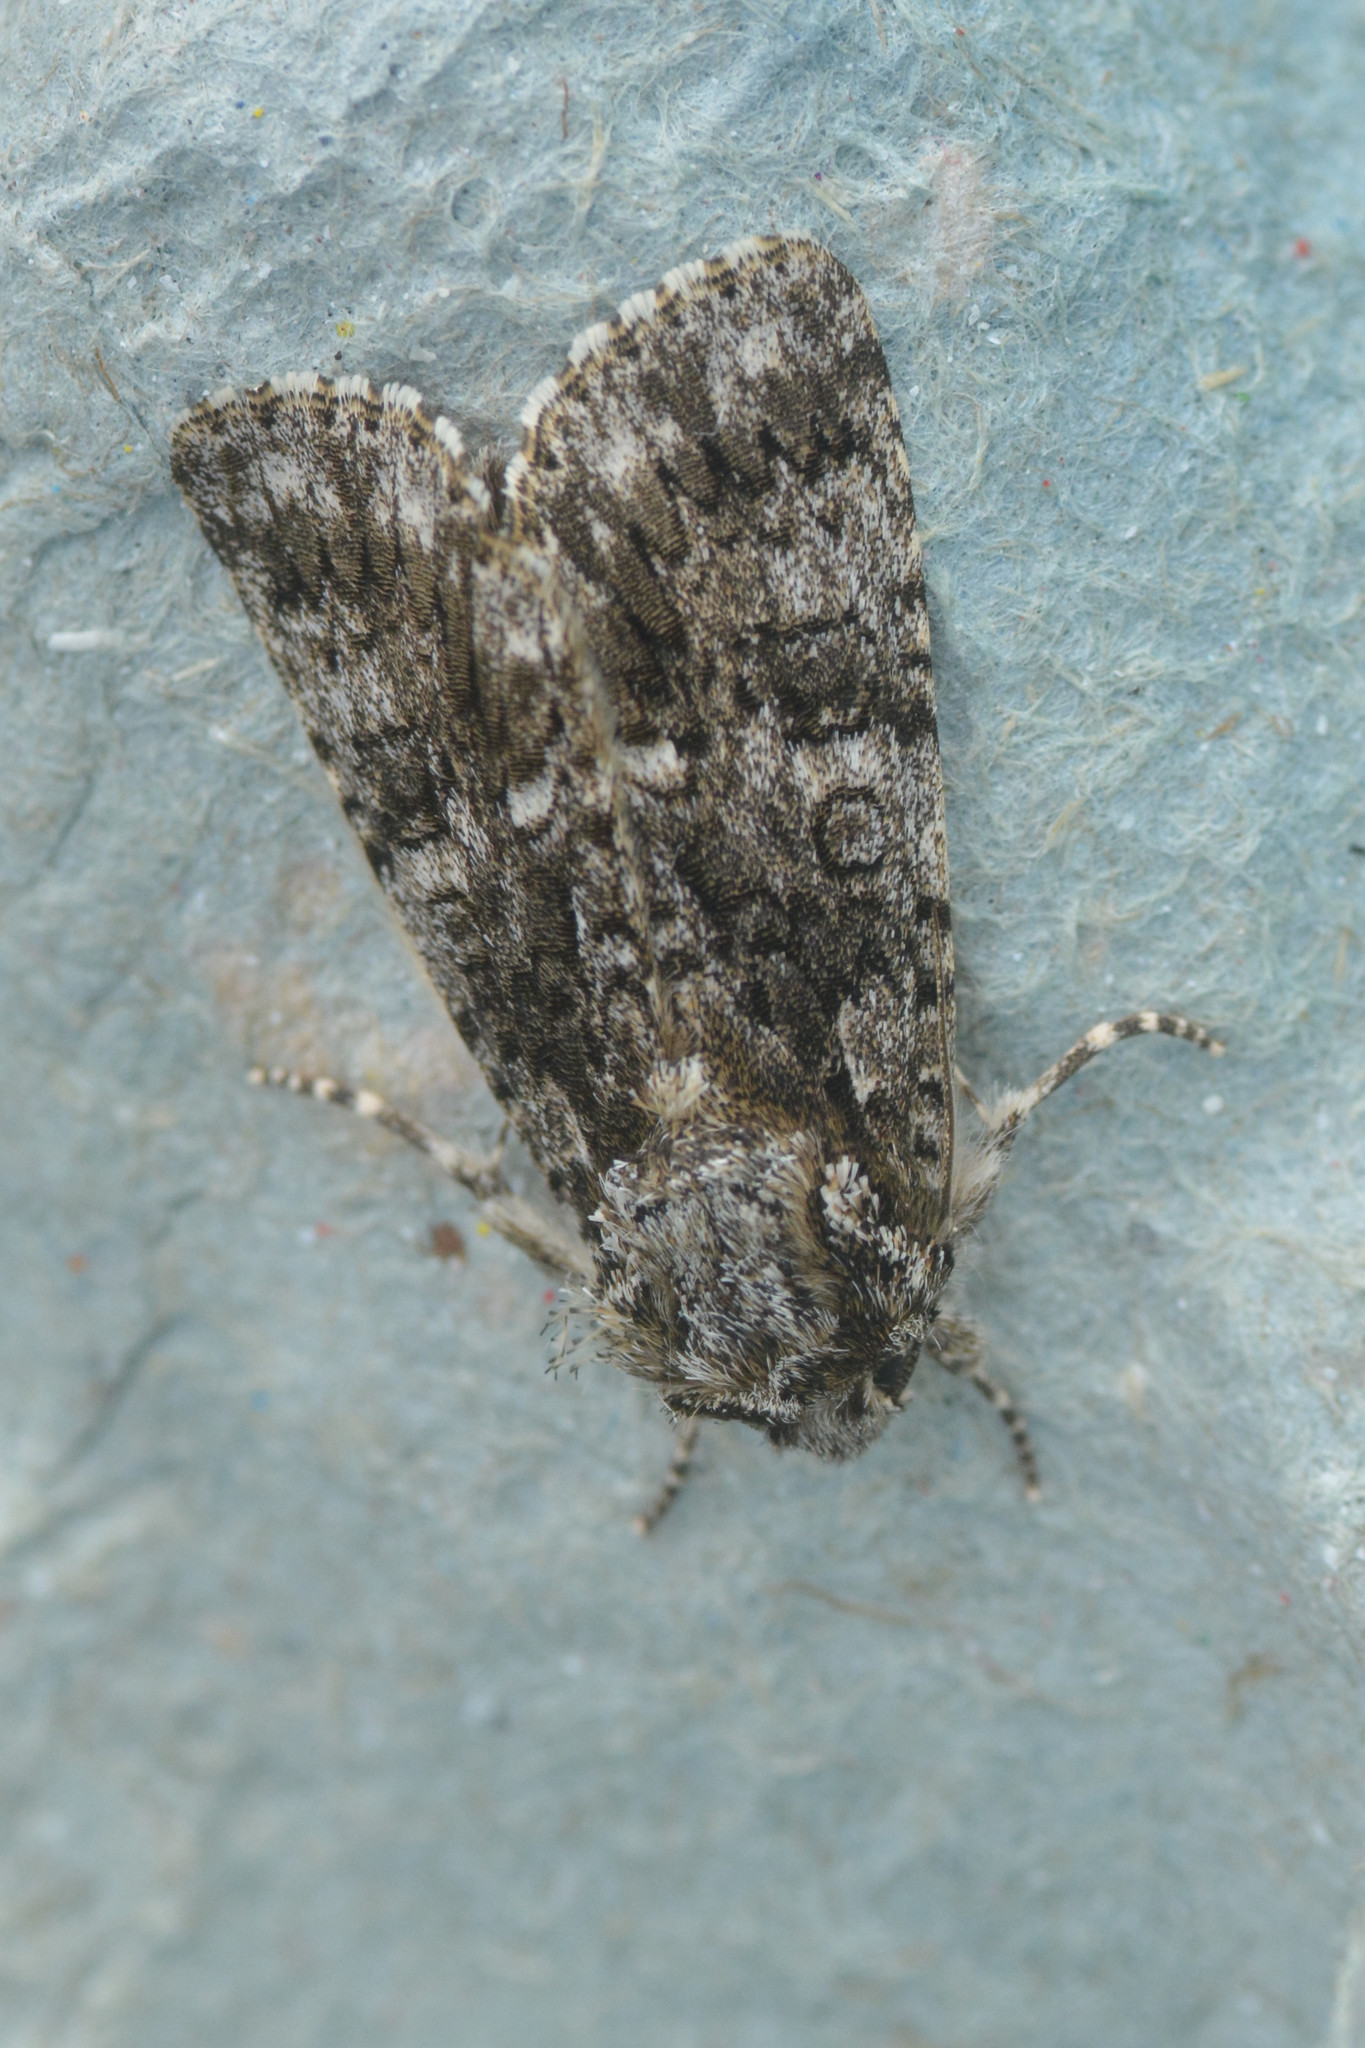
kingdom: Animalia
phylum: Arthropoda
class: Insecta
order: Lepidoptera
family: Noctuidae
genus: Acronicta
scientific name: Acronicta rumicis
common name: Knot grass
